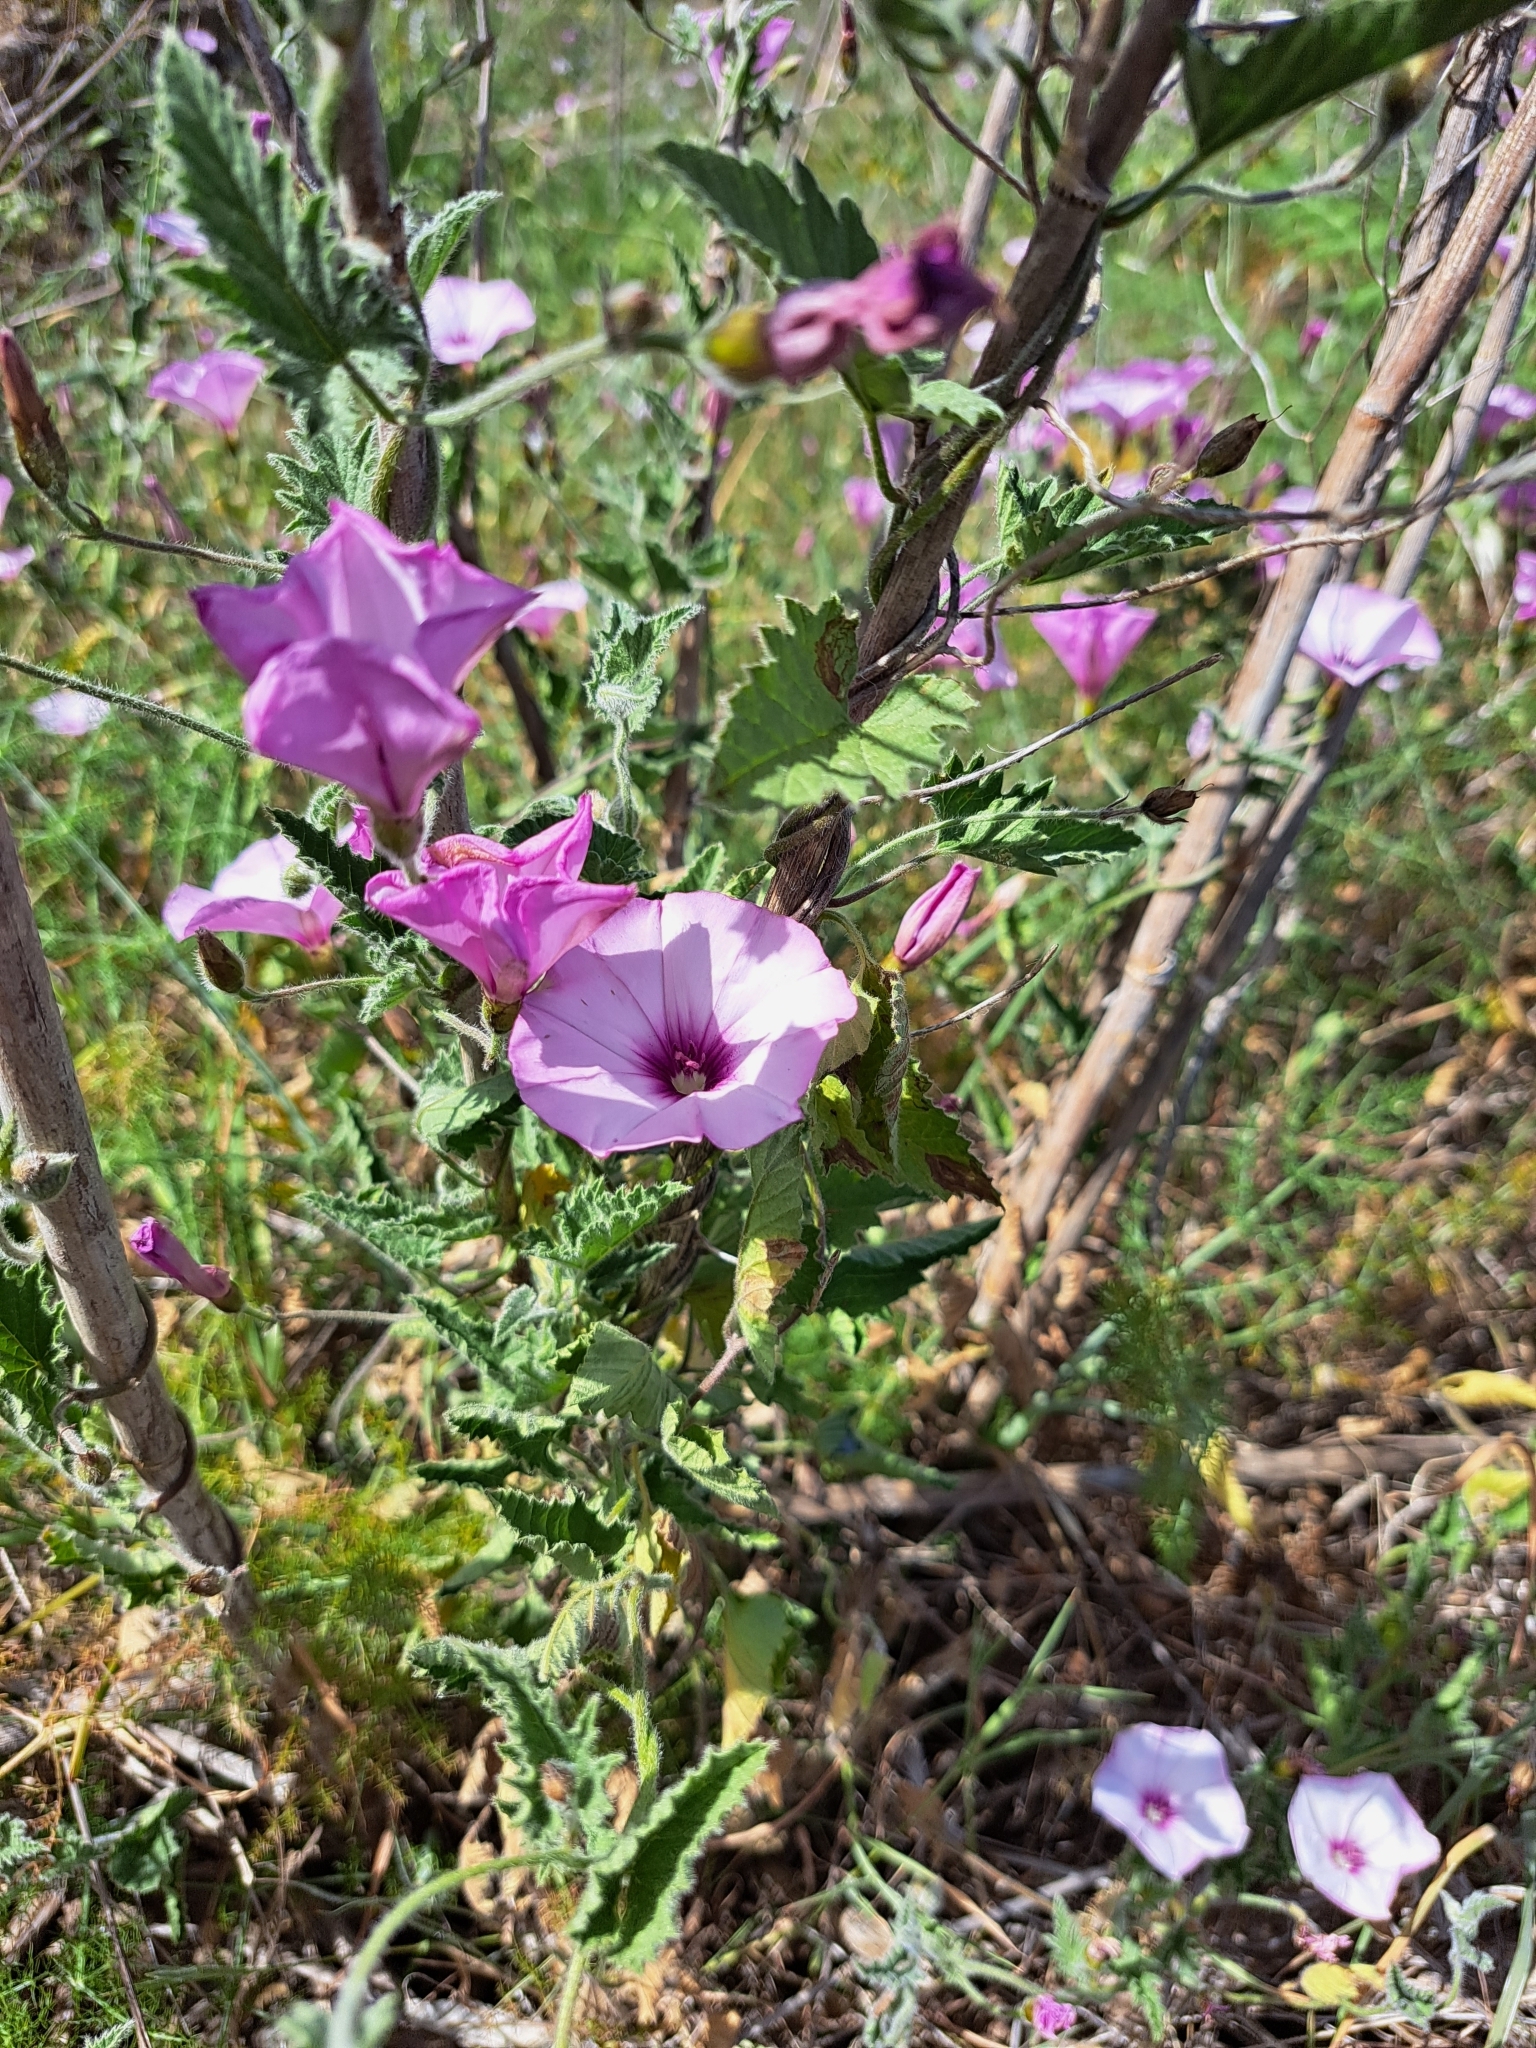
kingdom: Plantae
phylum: Tracheophyta
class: Magnoliopsida
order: Solanales
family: Convolvulaceae
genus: Convolvulus
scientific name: Convolvulus althaeoides
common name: Mallow bindweed
